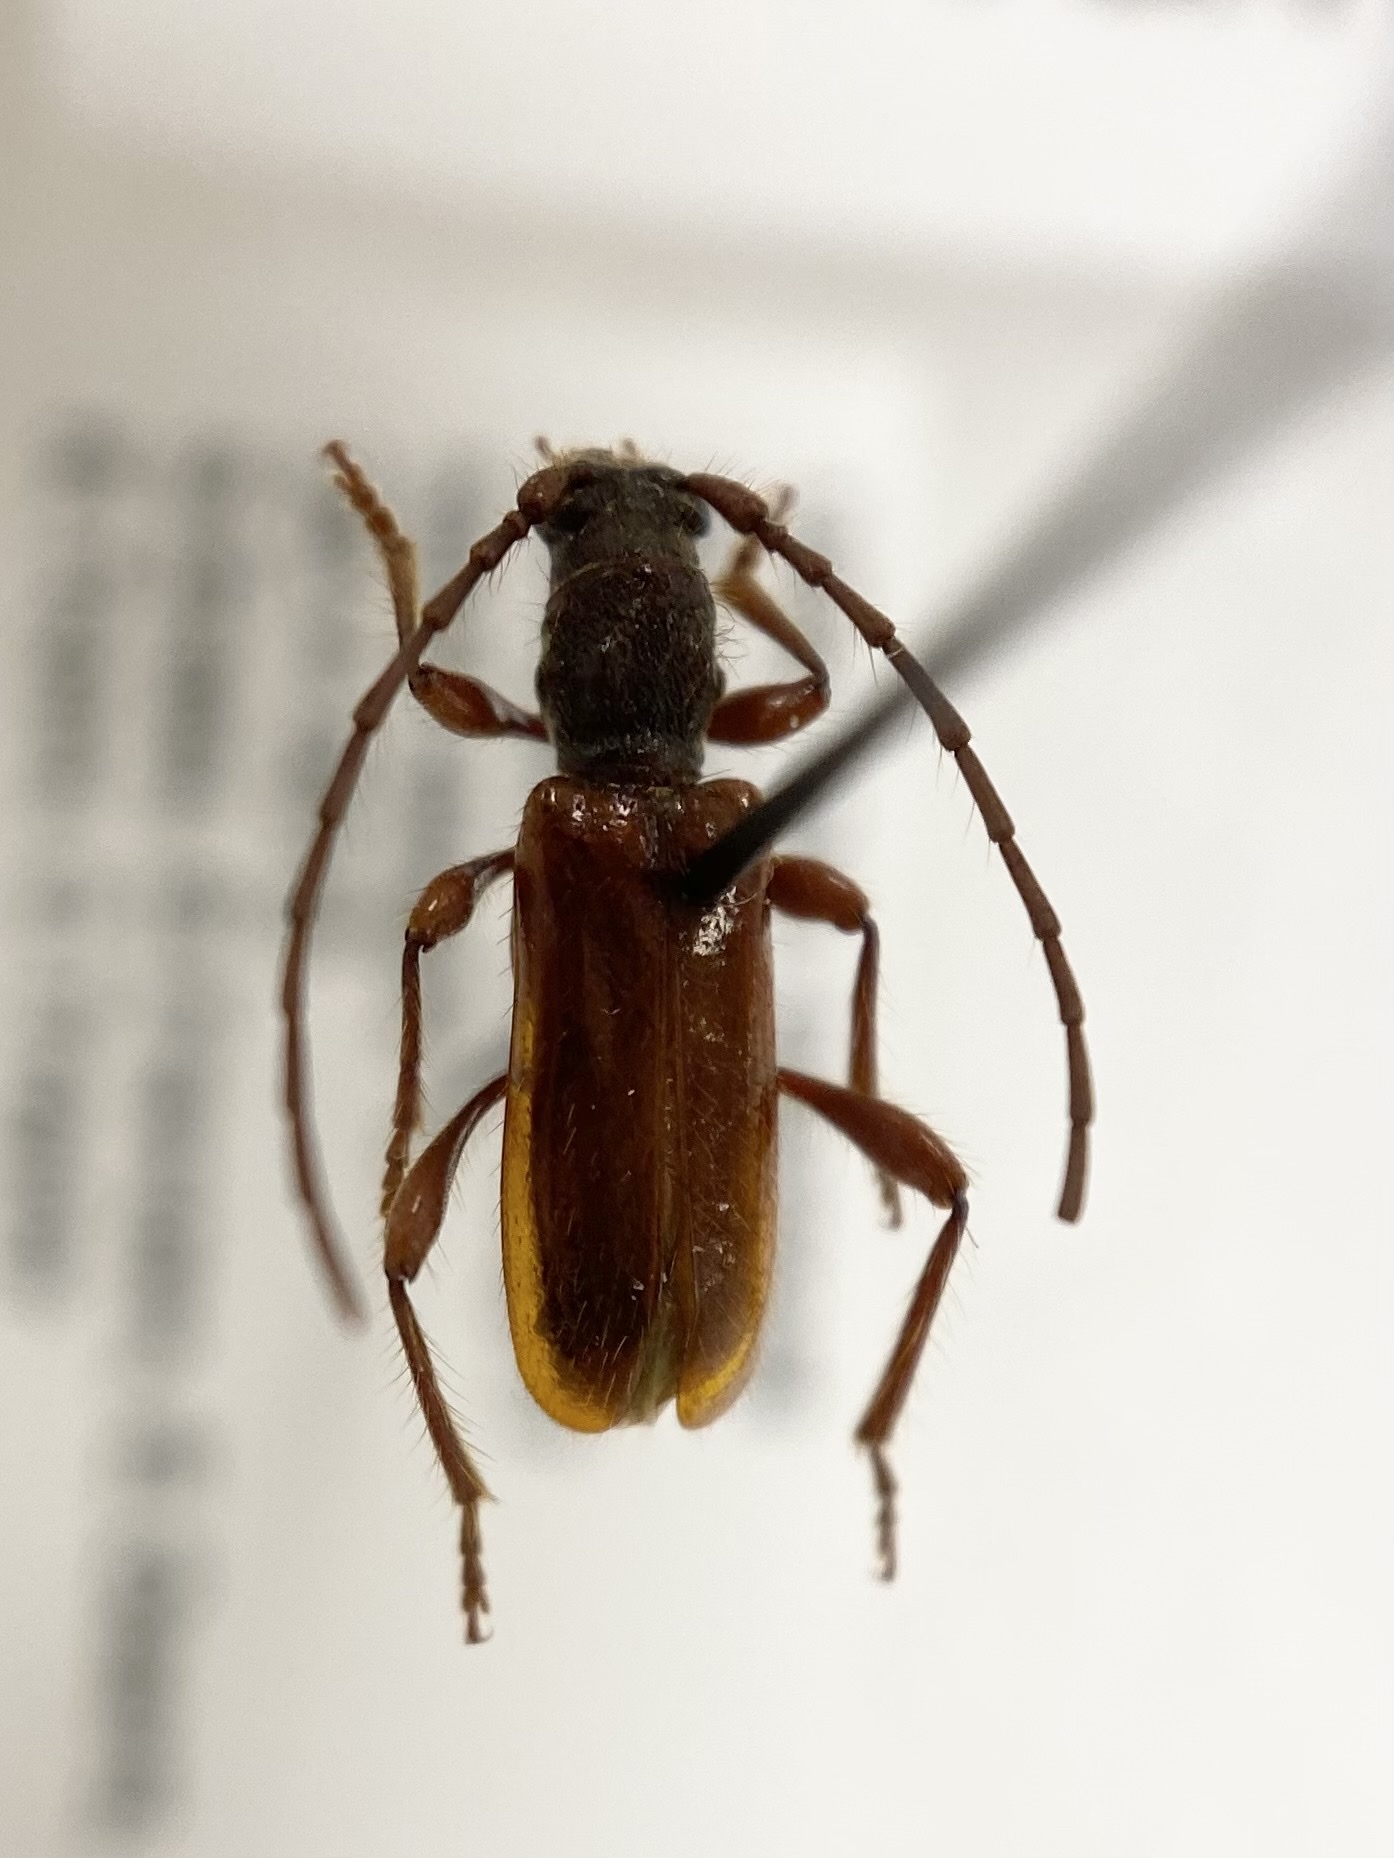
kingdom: Animalia
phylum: Arthropoda
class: Insecta
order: Coleoptera
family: Cerambycidae
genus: Obrium
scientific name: Obrium rubidum
